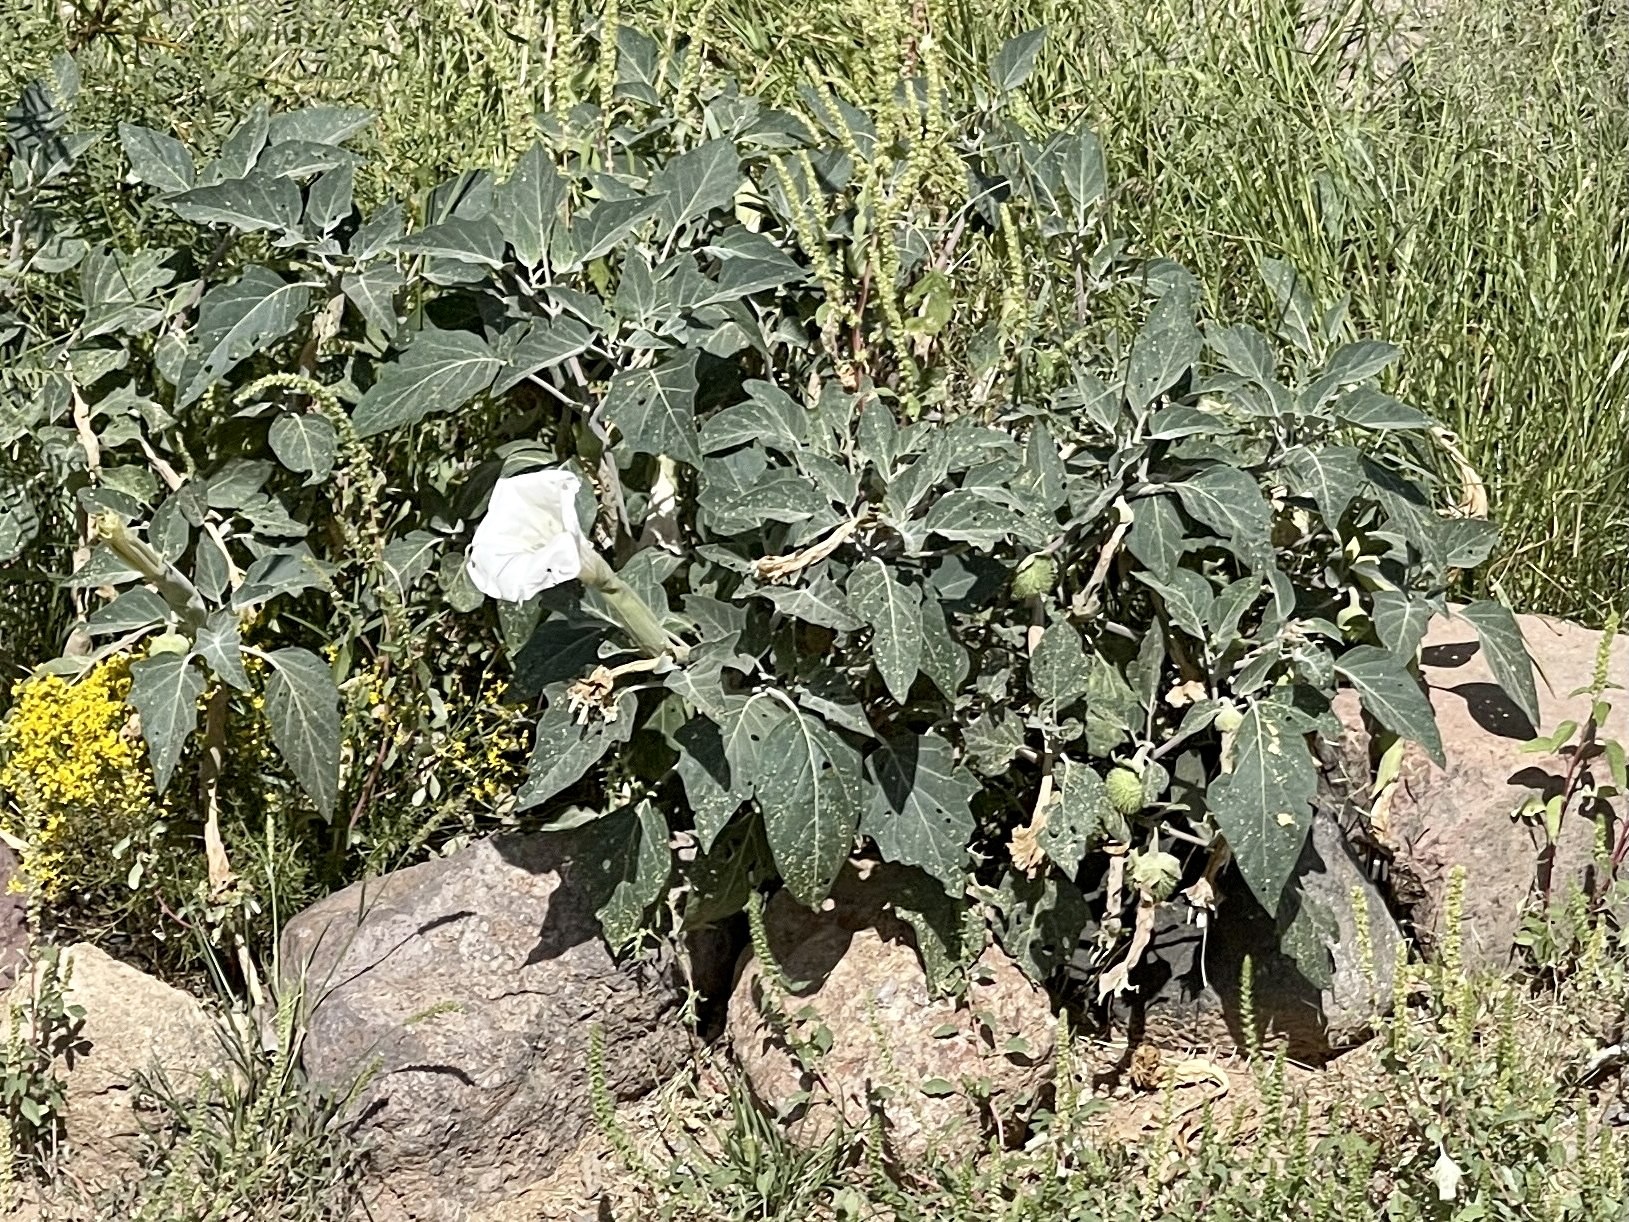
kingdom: Plantae
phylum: Tracheophyta
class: Magnoliopsida
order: Solanales
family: Solanaceae
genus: Datura
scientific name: Datura wrightii
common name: Sacred thorn-apple
